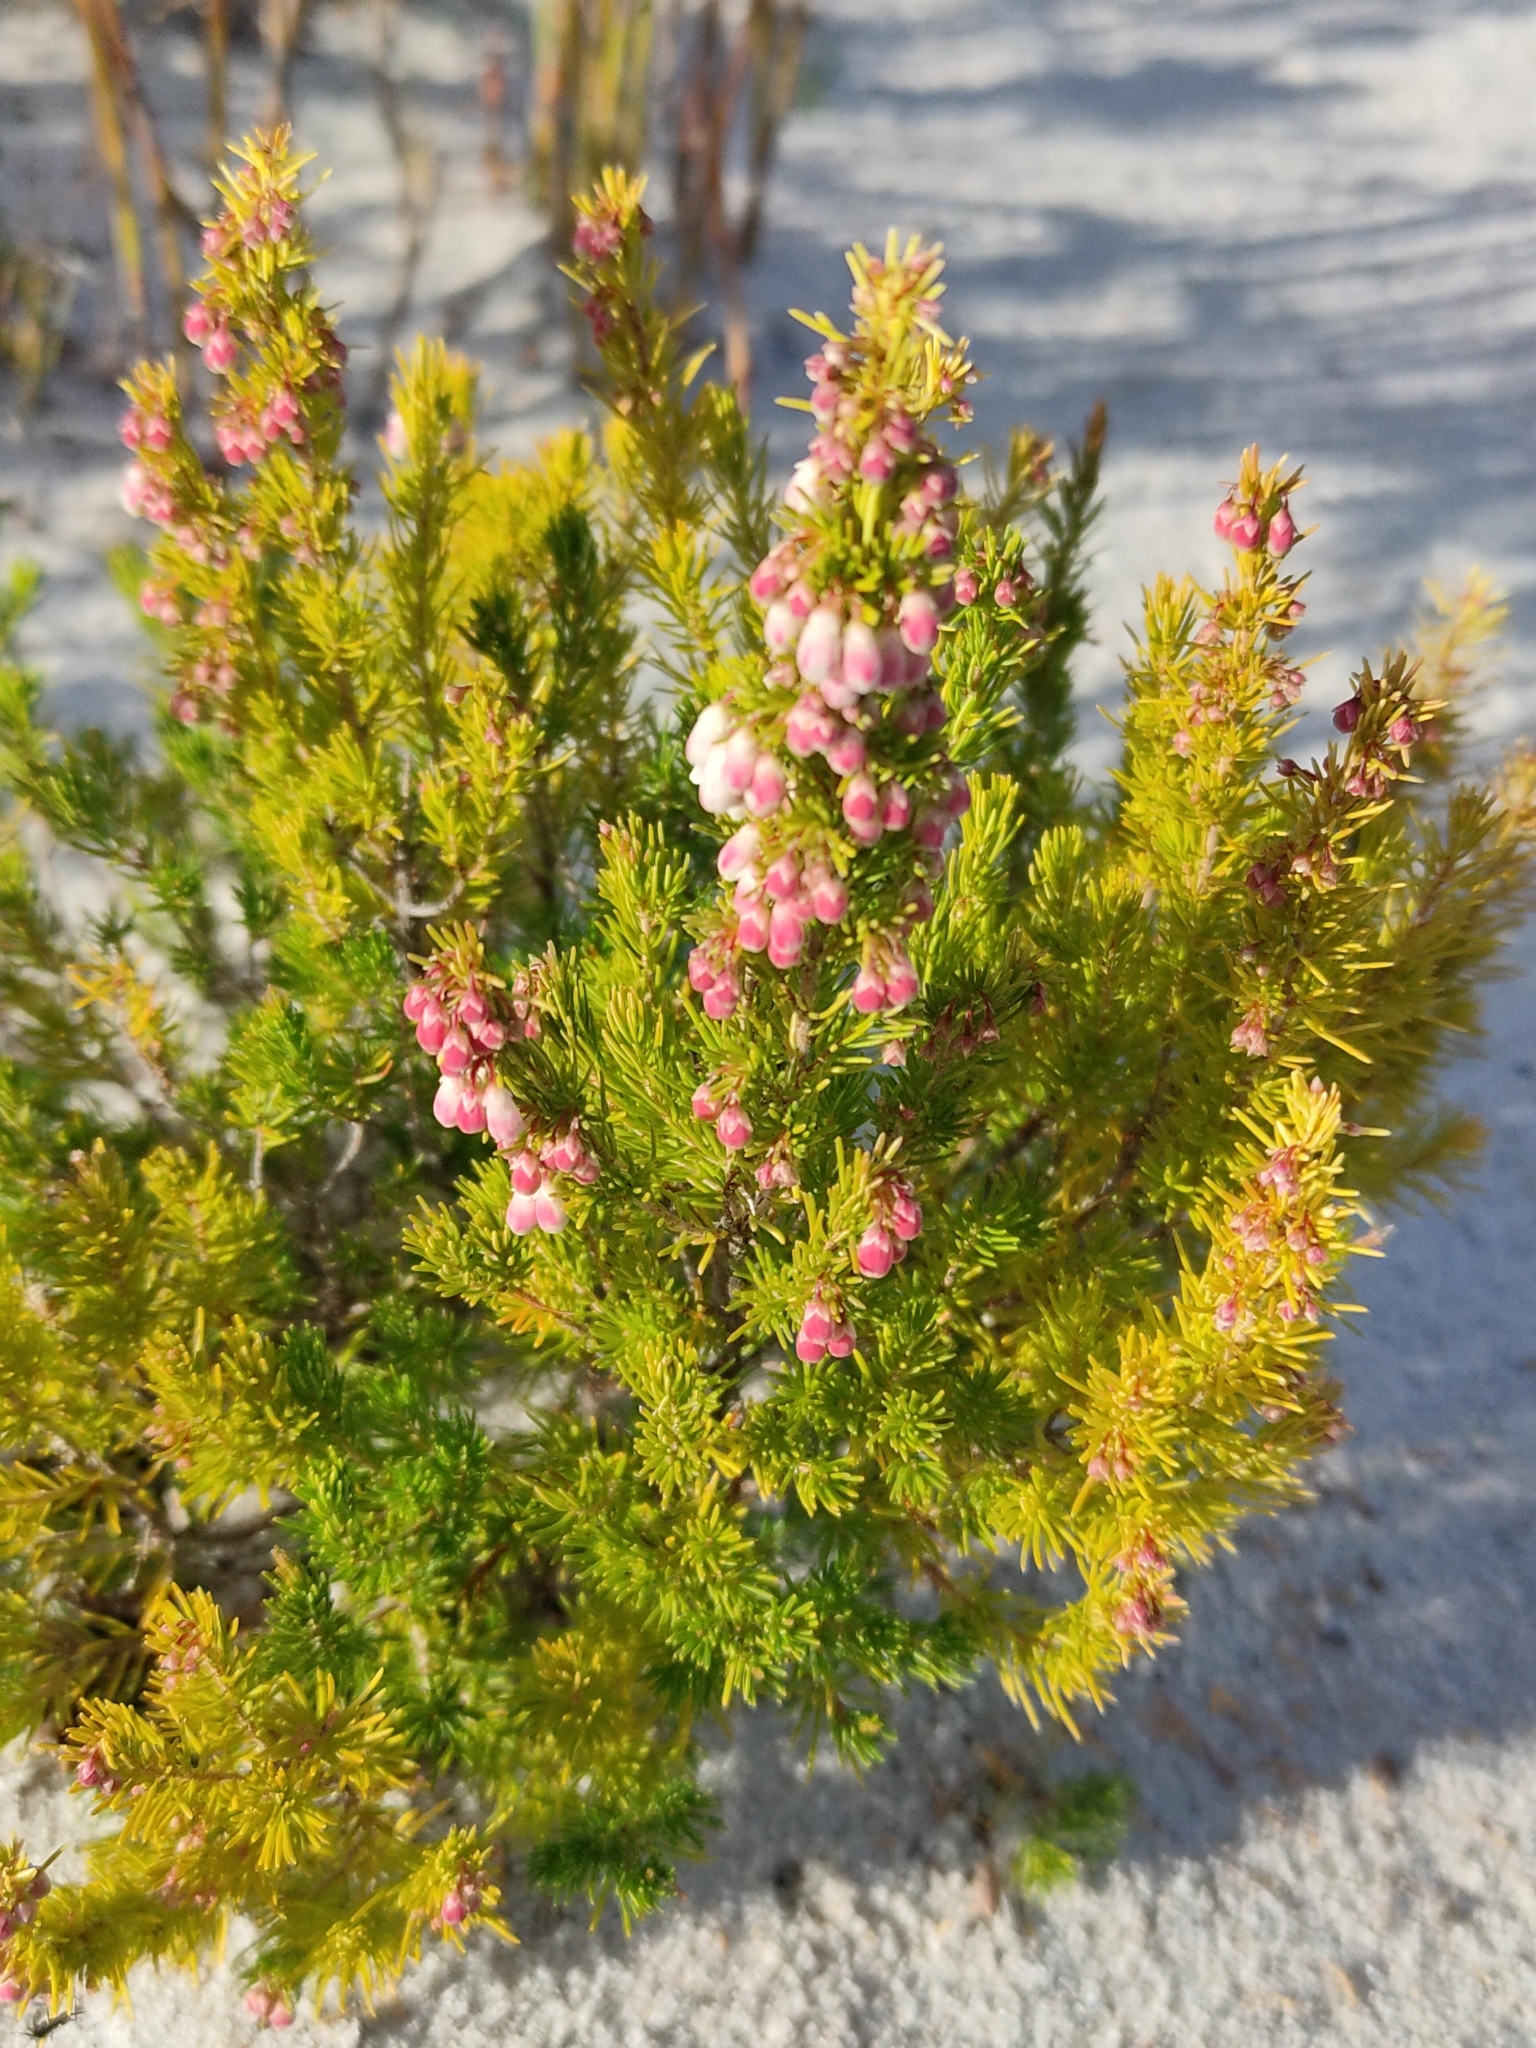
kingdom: Plantae
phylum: Tracheophyta
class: Magnoliopsida
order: Ericales
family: Ericaceae
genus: Erica
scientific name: Erica lusitanica
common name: Spanish heath
